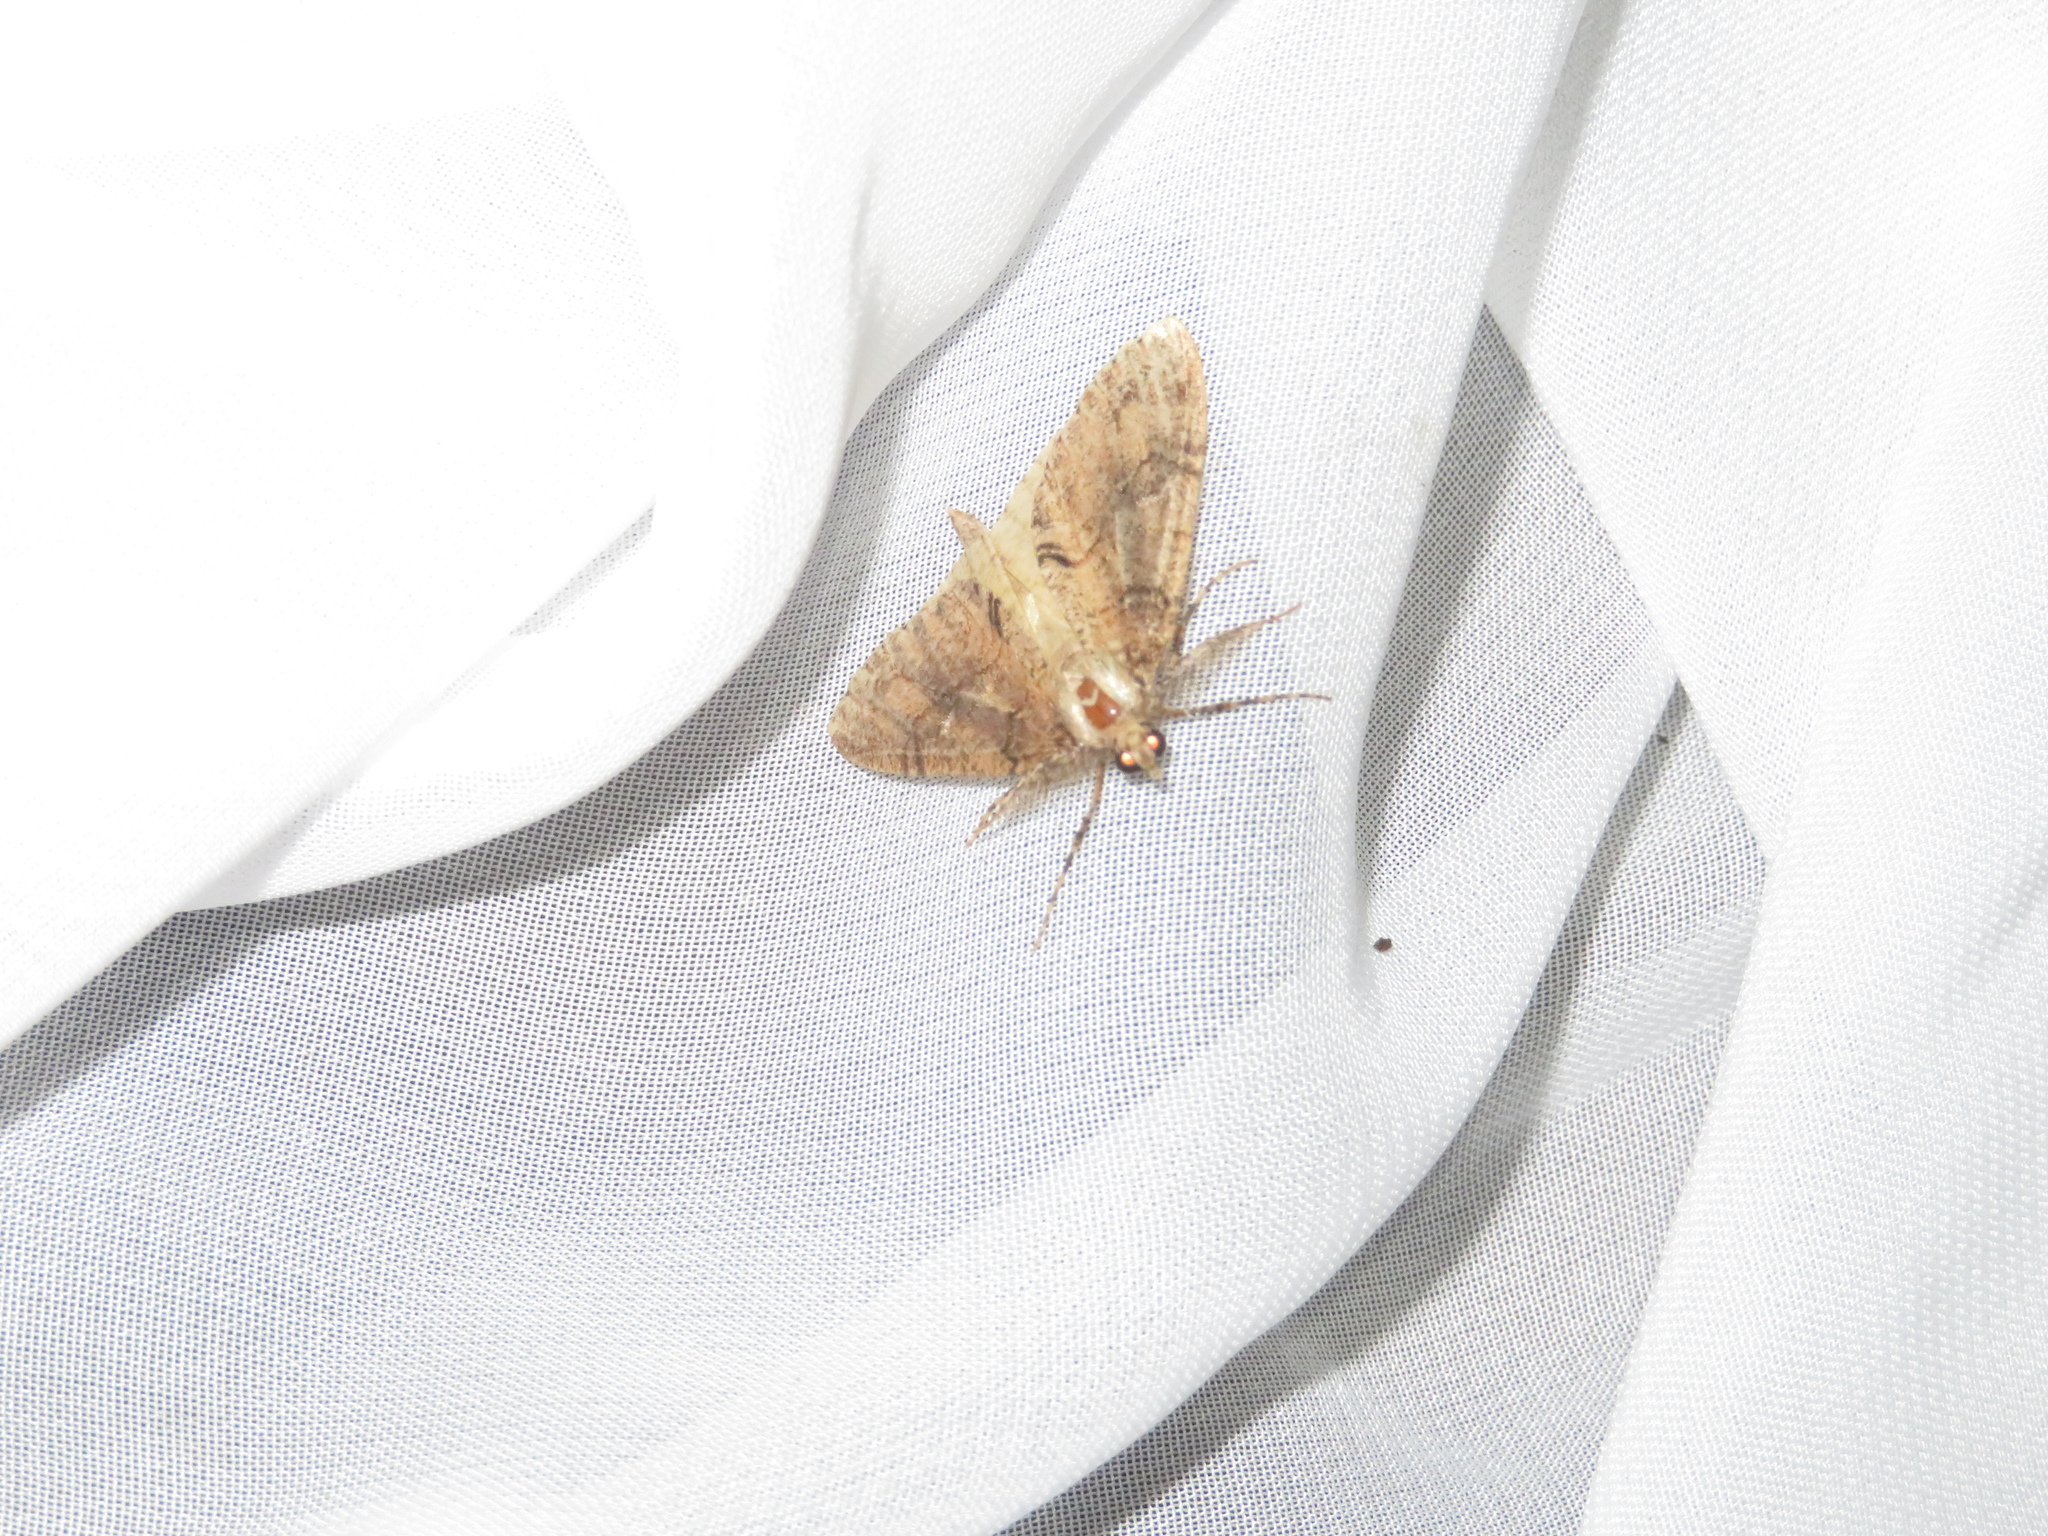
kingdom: Animalia
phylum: Arthropoda
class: Insecta
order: Lepidoptera
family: Geometridae
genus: Pseudocoremia
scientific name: Pseudocoremia suavis
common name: Common forest looper
